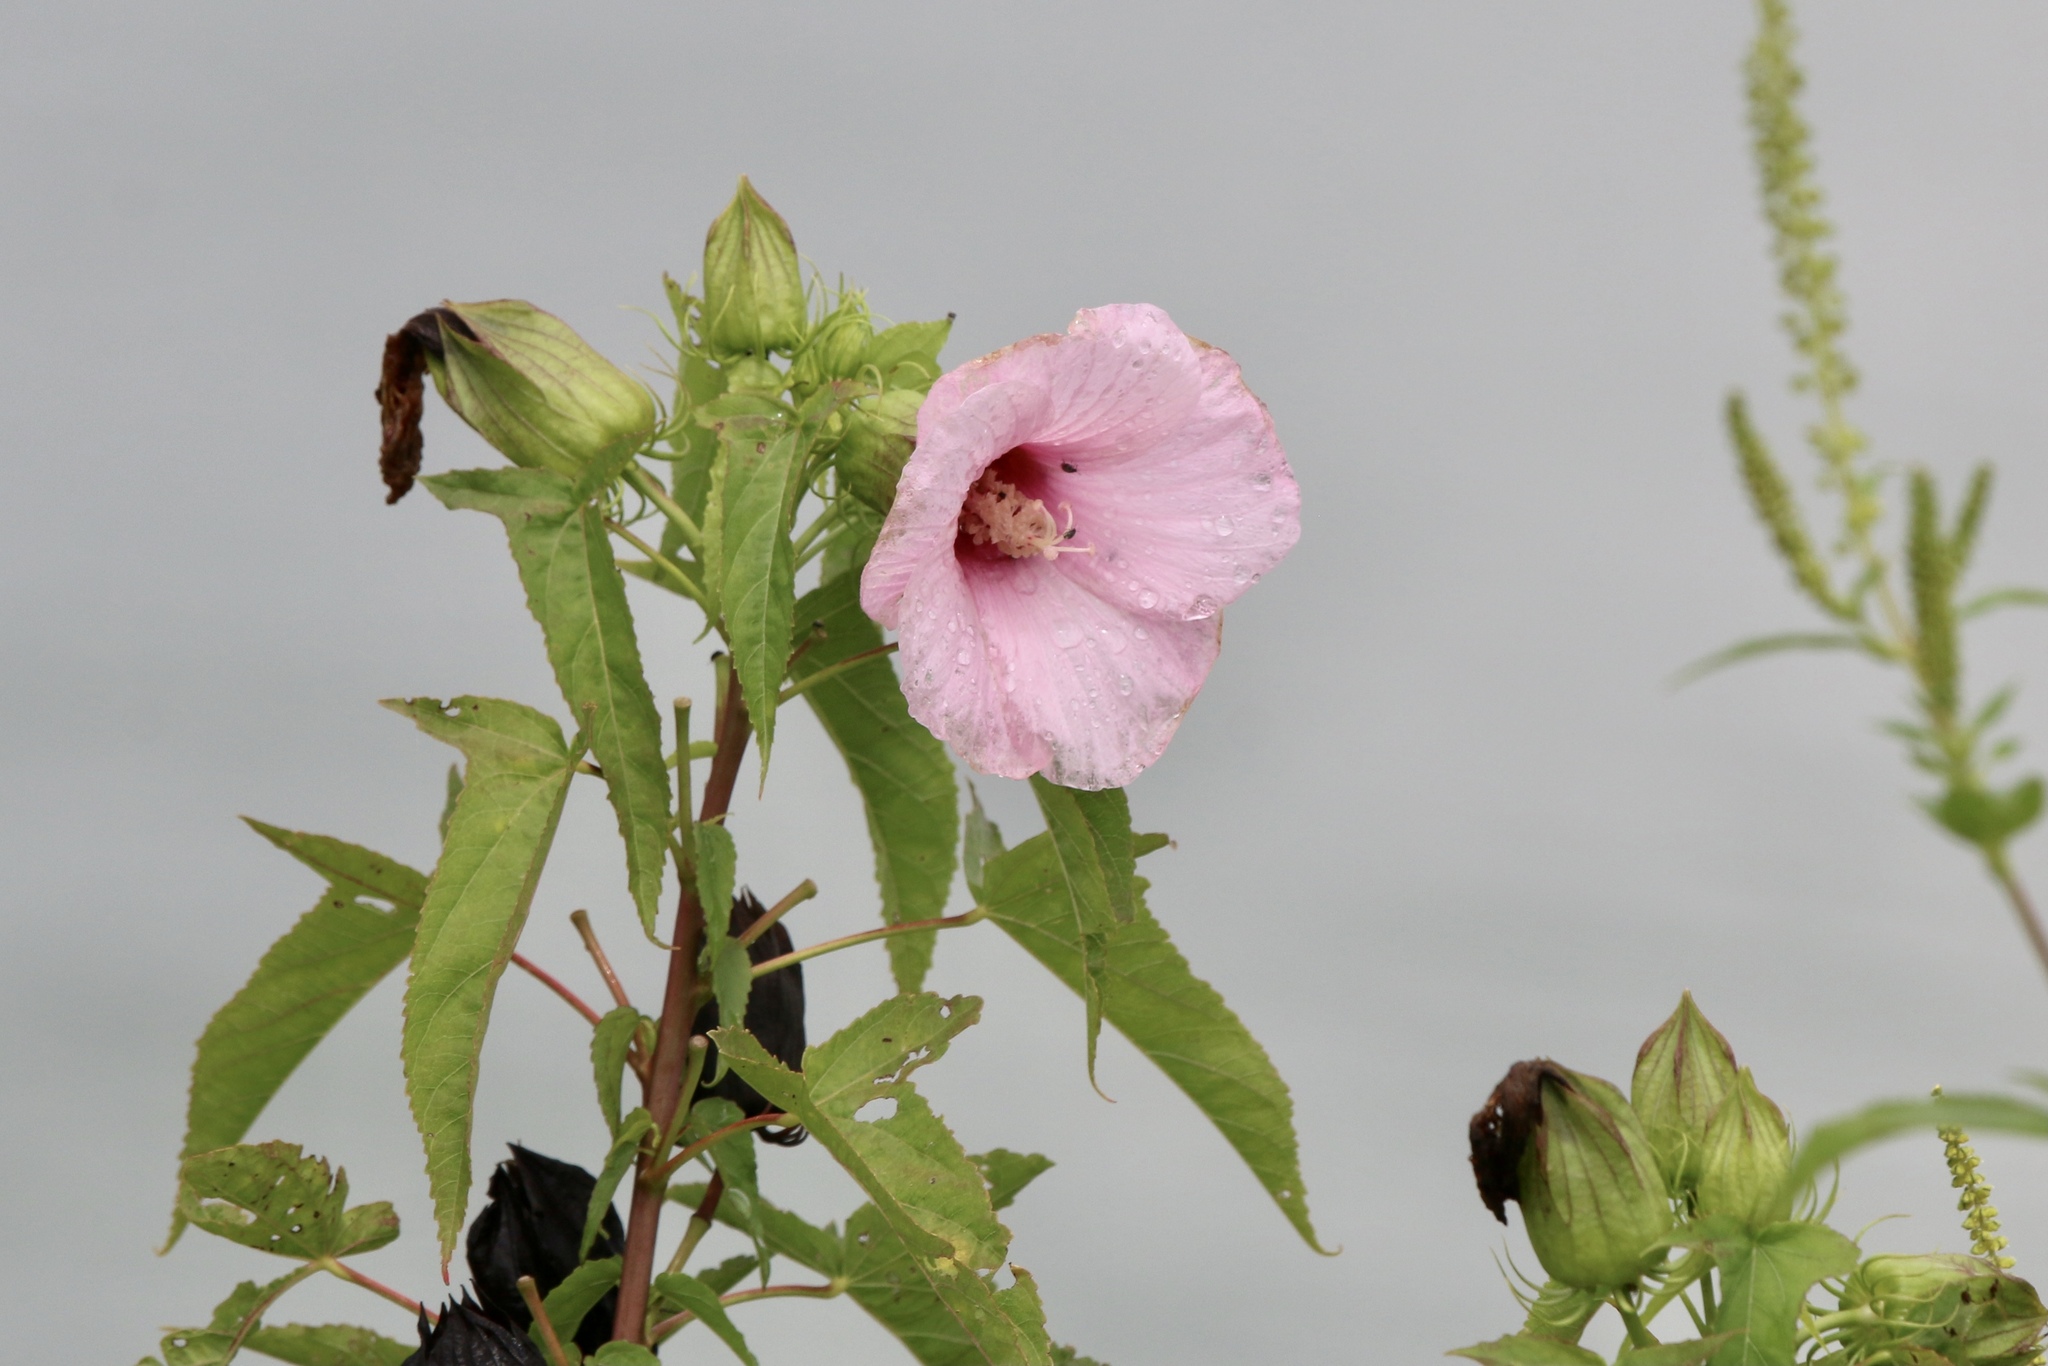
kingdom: Plantae
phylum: Tracheophyta
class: Magnoliopsida
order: Malvales
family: Malvaceae
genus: Hibiscus
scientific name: Hibiscus laevis
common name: Scarlet rose-mallow
